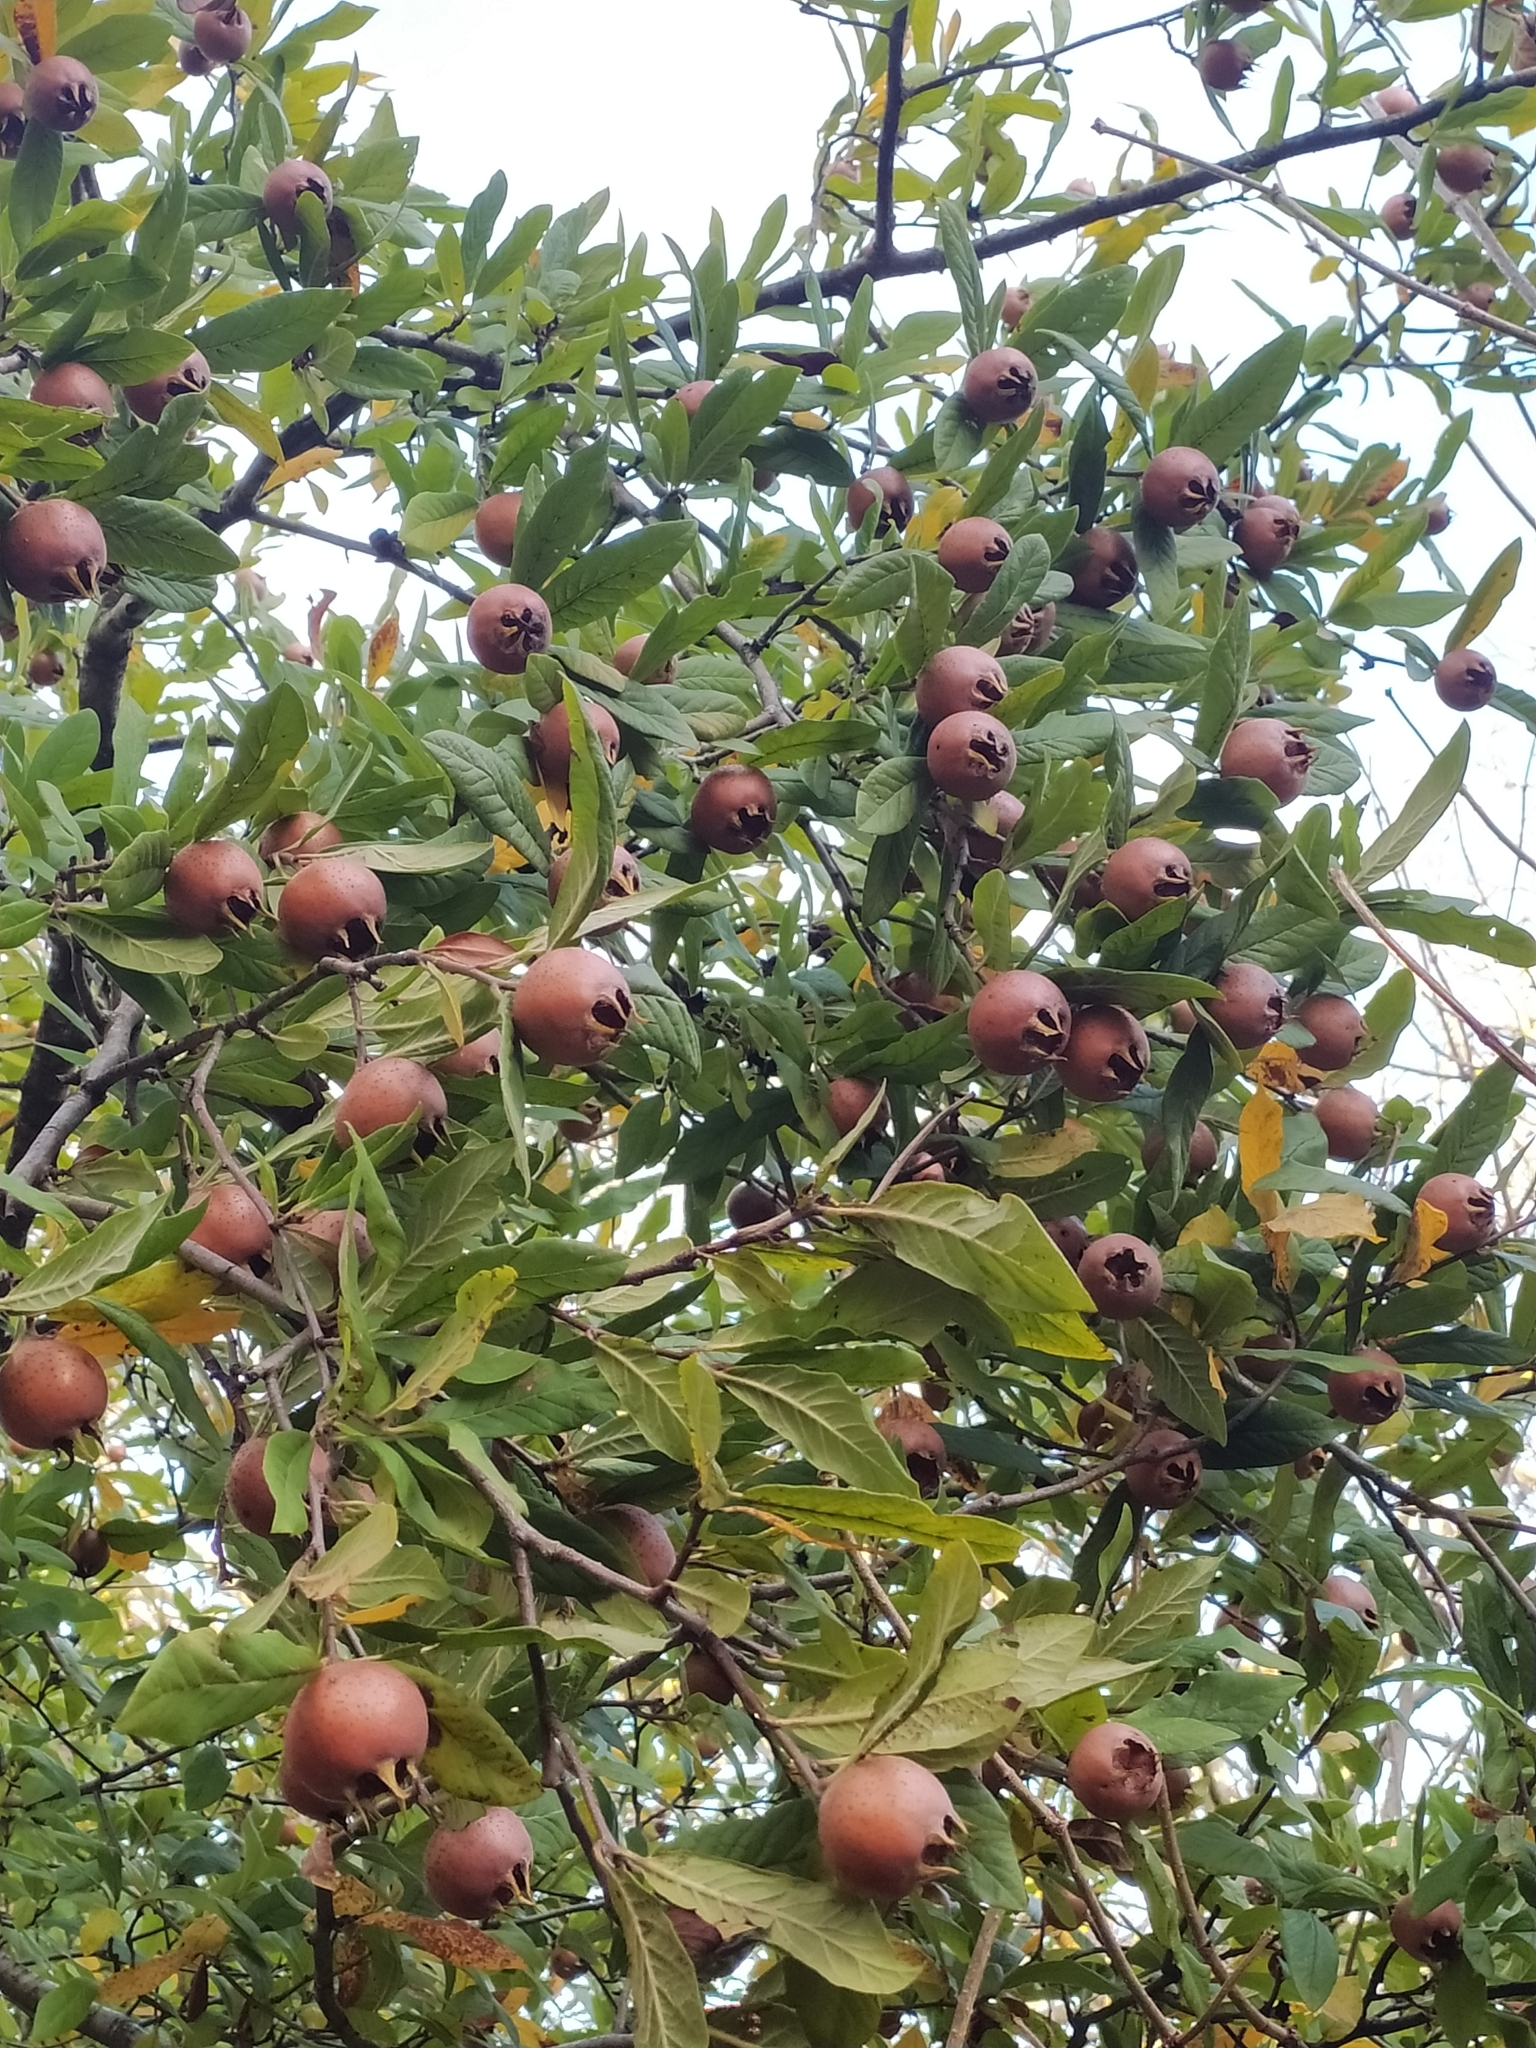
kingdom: Plantae
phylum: Tracheophyta
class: Magnoliopsida
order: Rosales
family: Rosaceae
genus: Mespilus
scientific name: Mespilus germanica
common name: Medlar
